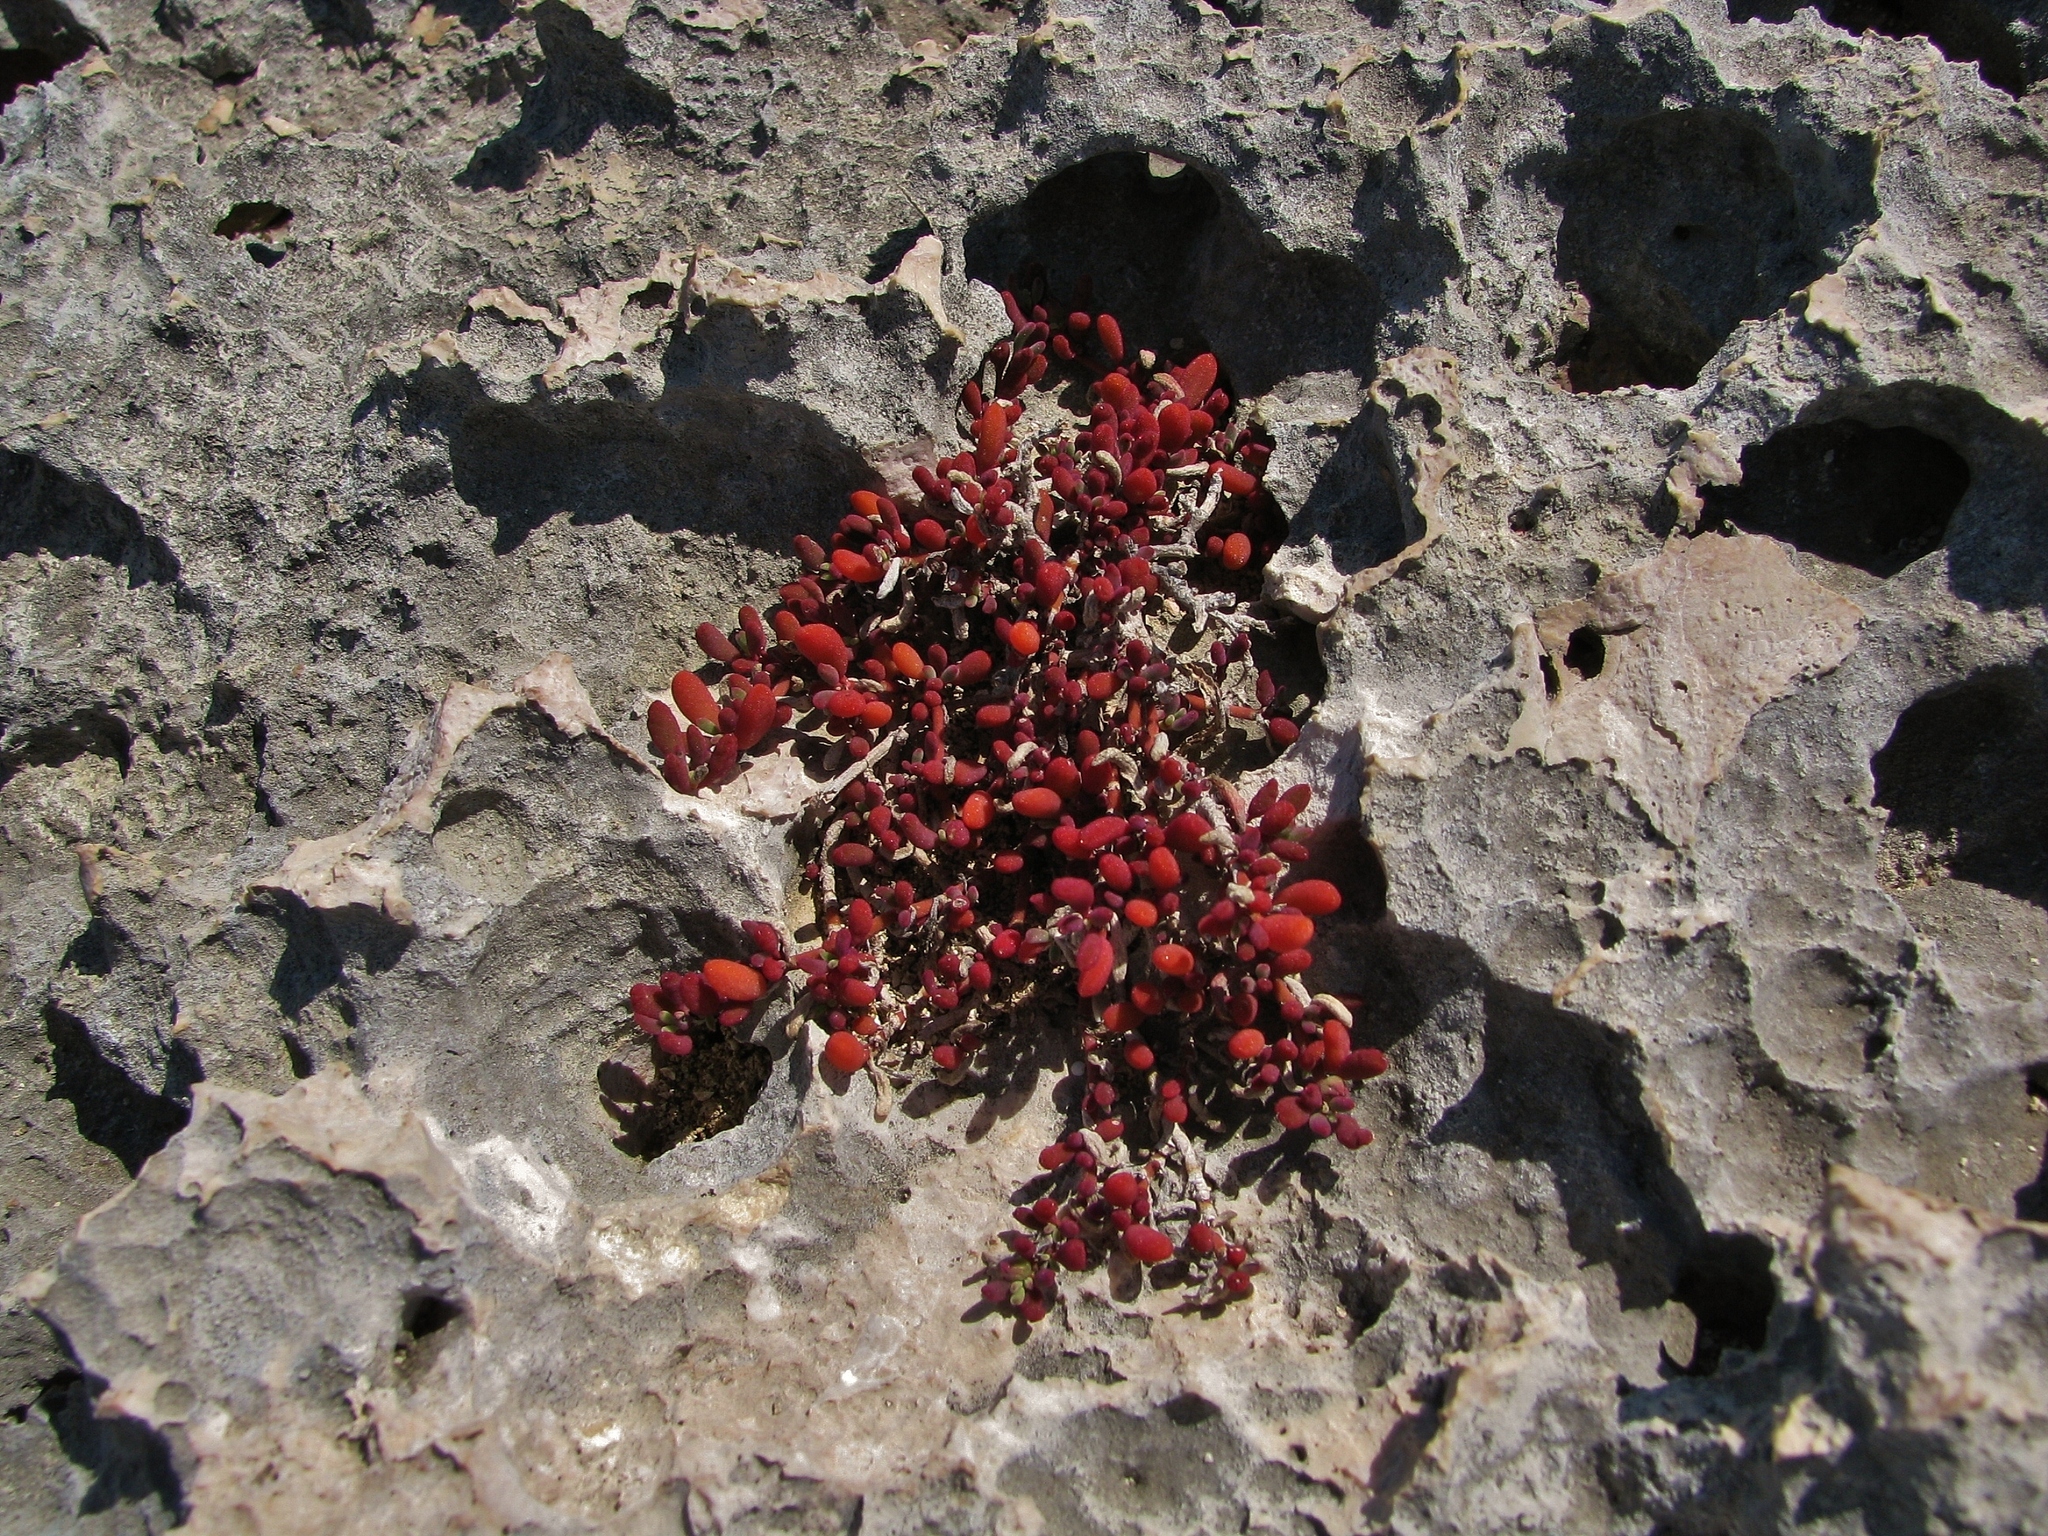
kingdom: Plantae
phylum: Tracheophyta
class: Magnoliopsida
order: Caryophyllales
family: Aizoaceae
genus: Sesuvium
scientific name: Sesuvium portulacastrum
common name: Sea-purslane
